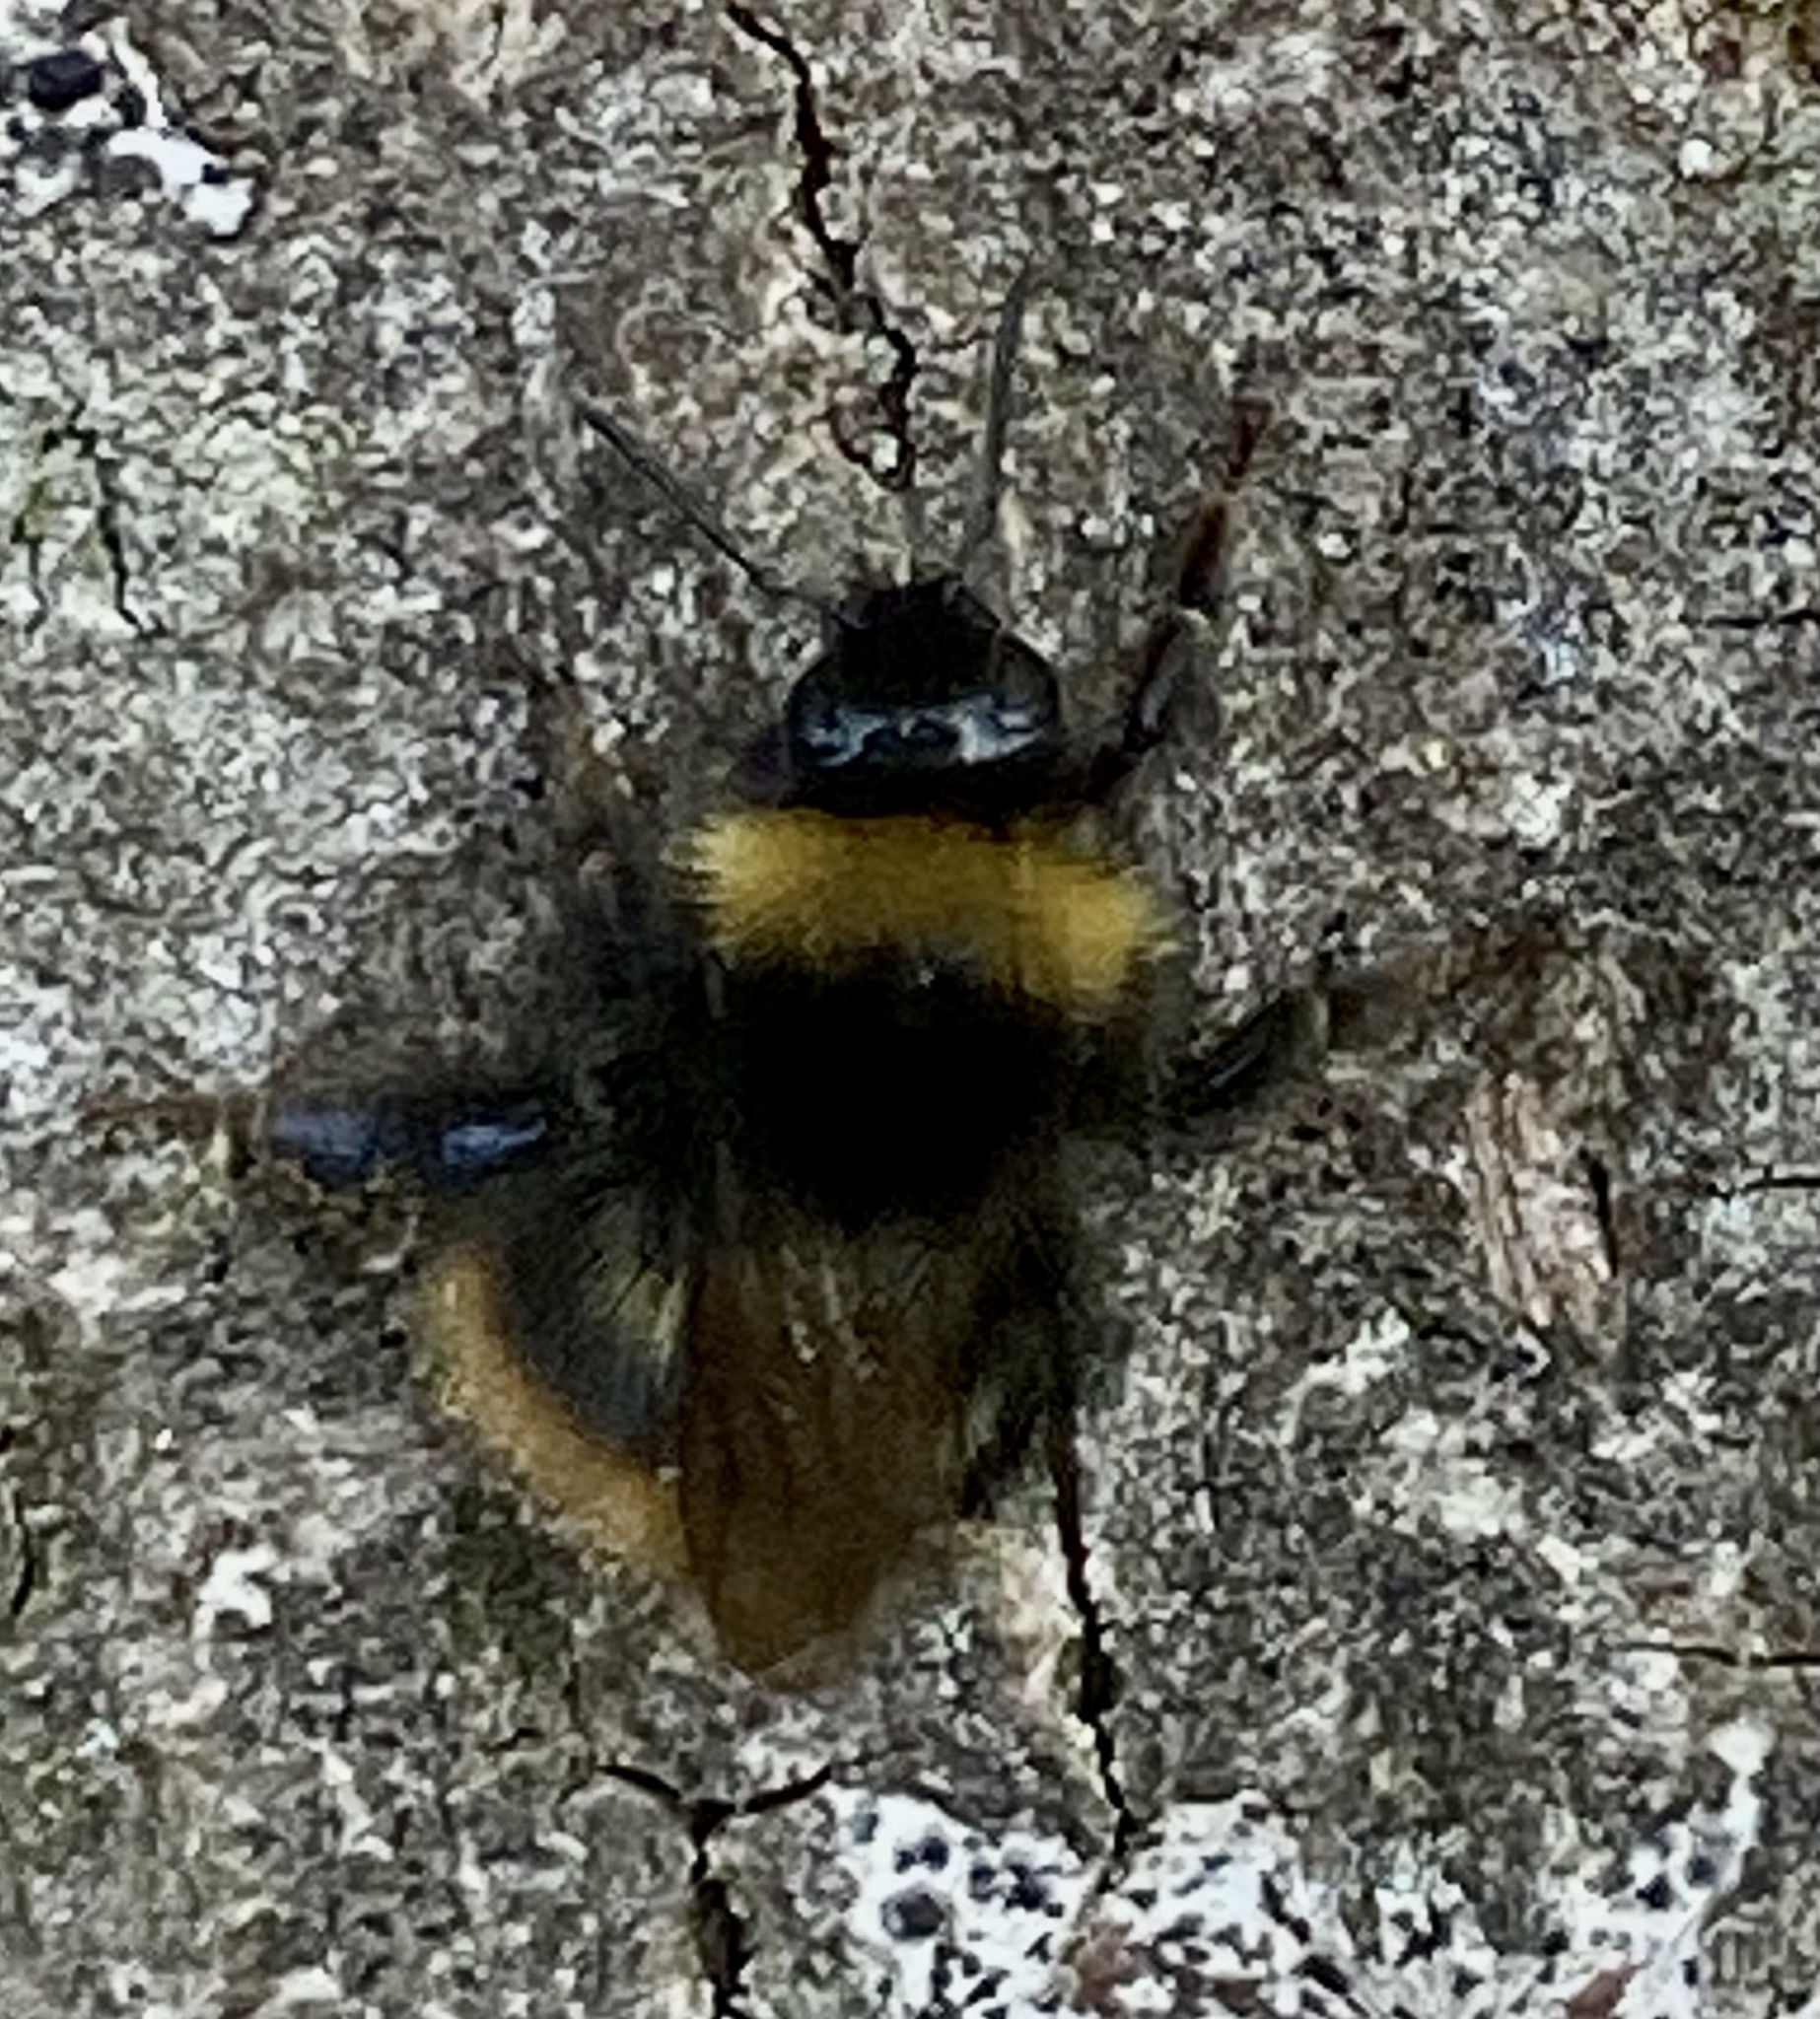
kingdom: Animalia
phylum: Arthropoda
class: Insecta
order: Hymenoptera
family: Apidae
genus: Bombus
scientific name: Bombus pratorum
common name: Early humble-bee
